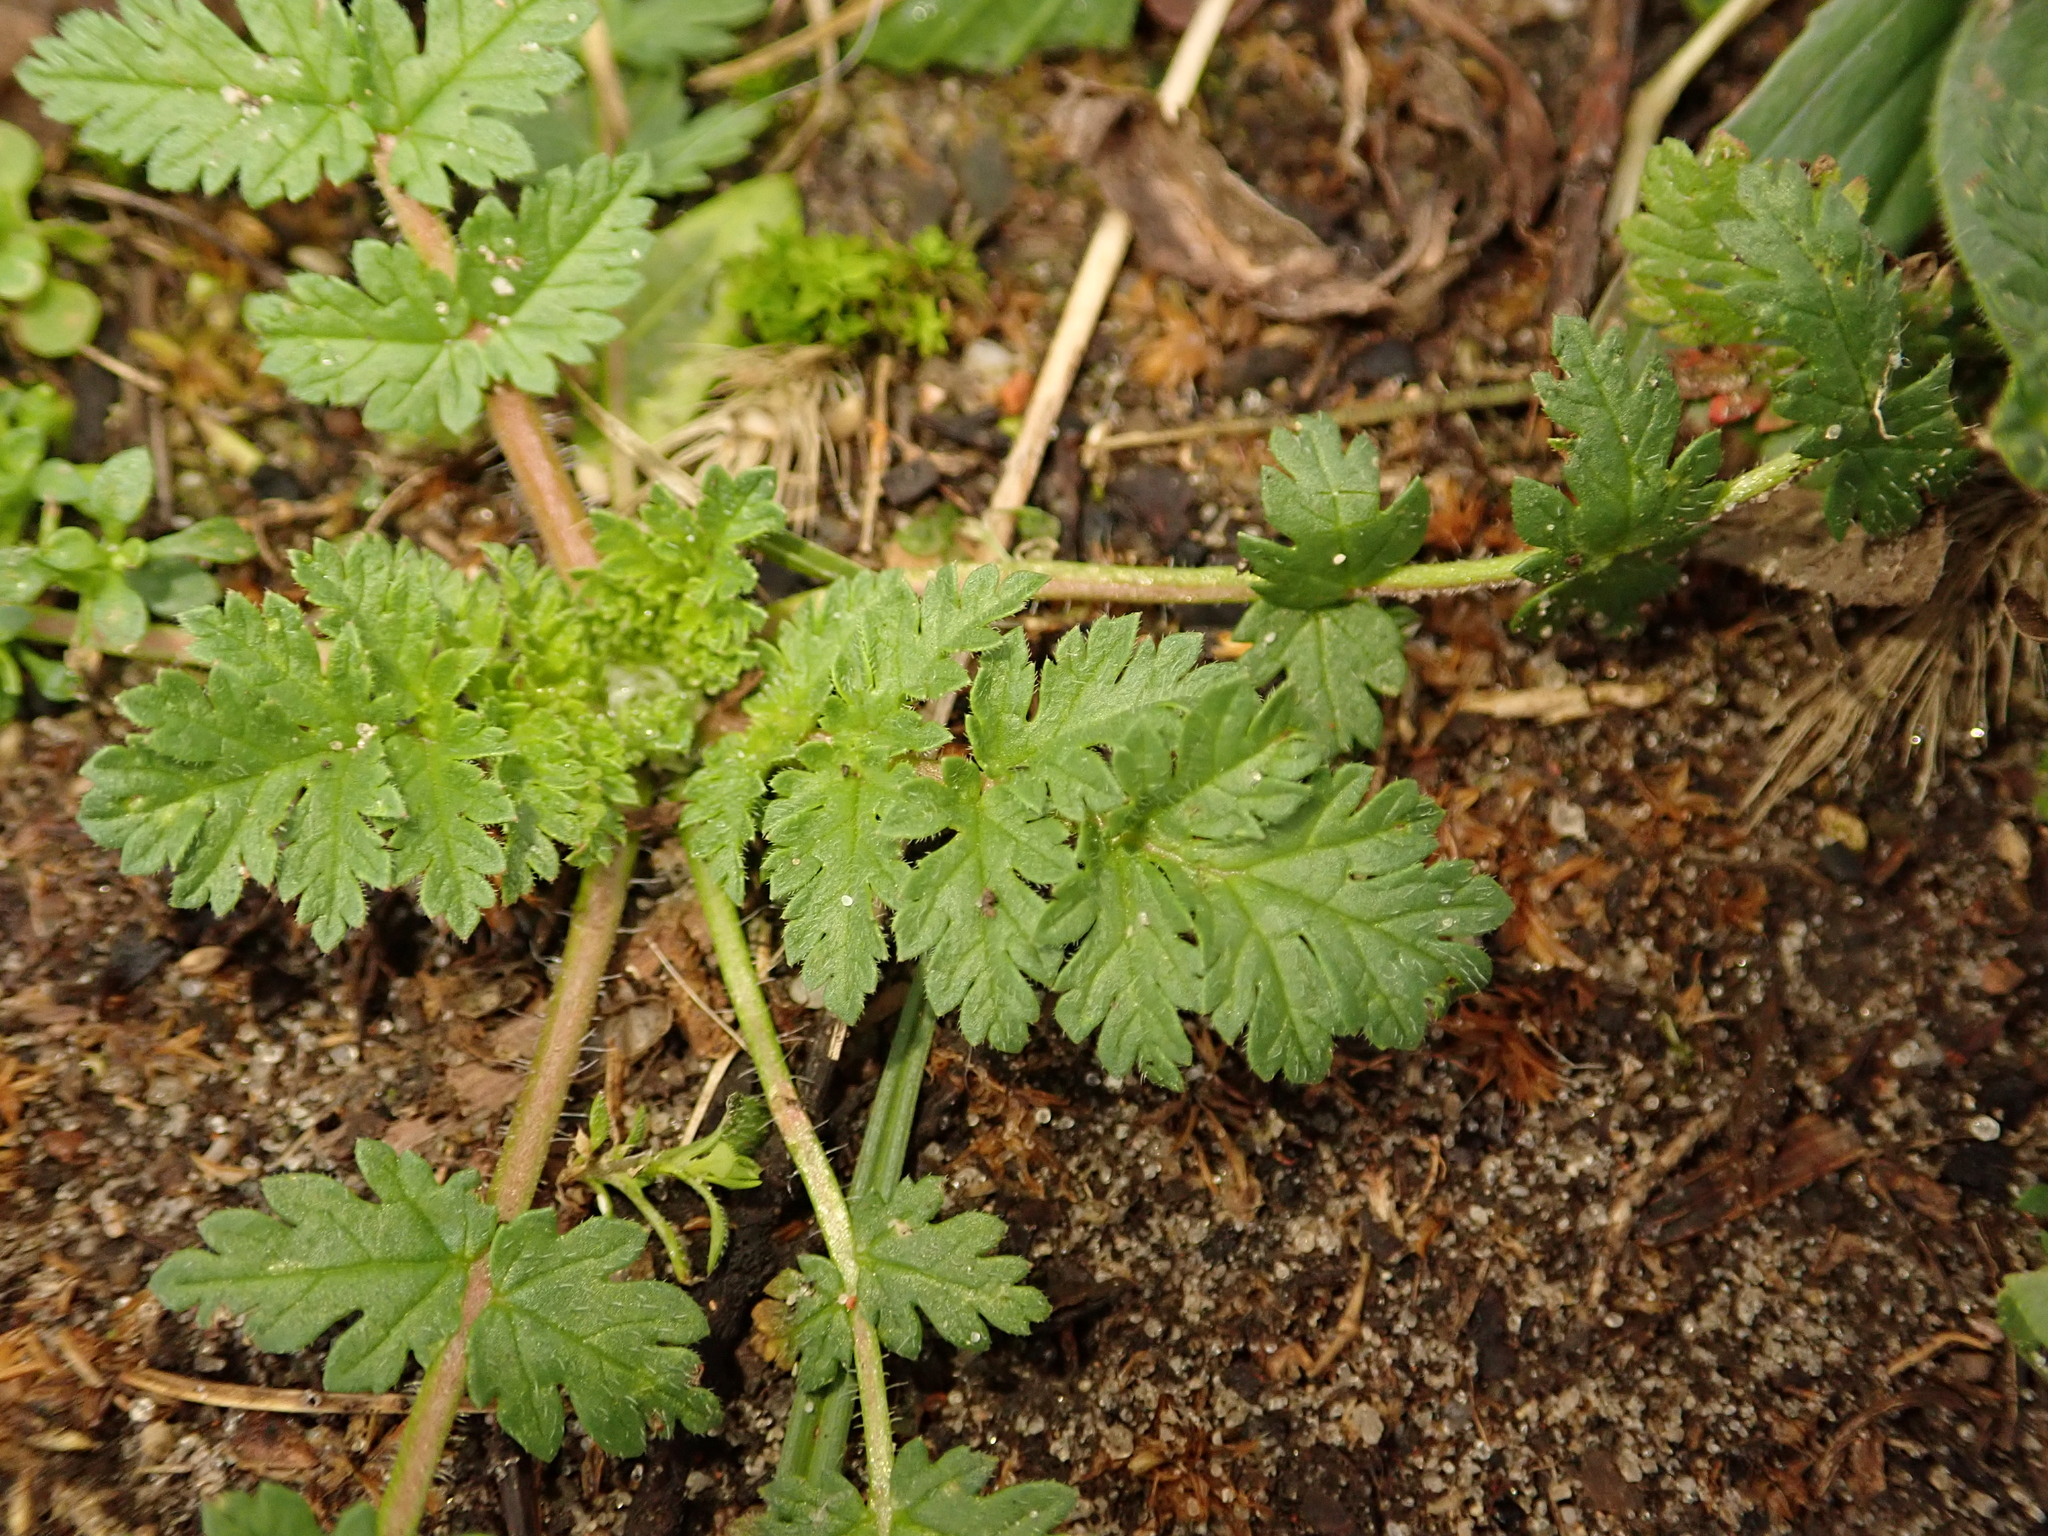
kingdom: Plantae
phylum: Tracheophyta
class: Magnoliopsida
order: Geraniales
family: Geraniaceae
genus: Erodium
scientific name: Erodium cicutarium
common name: Common stork's-bill
